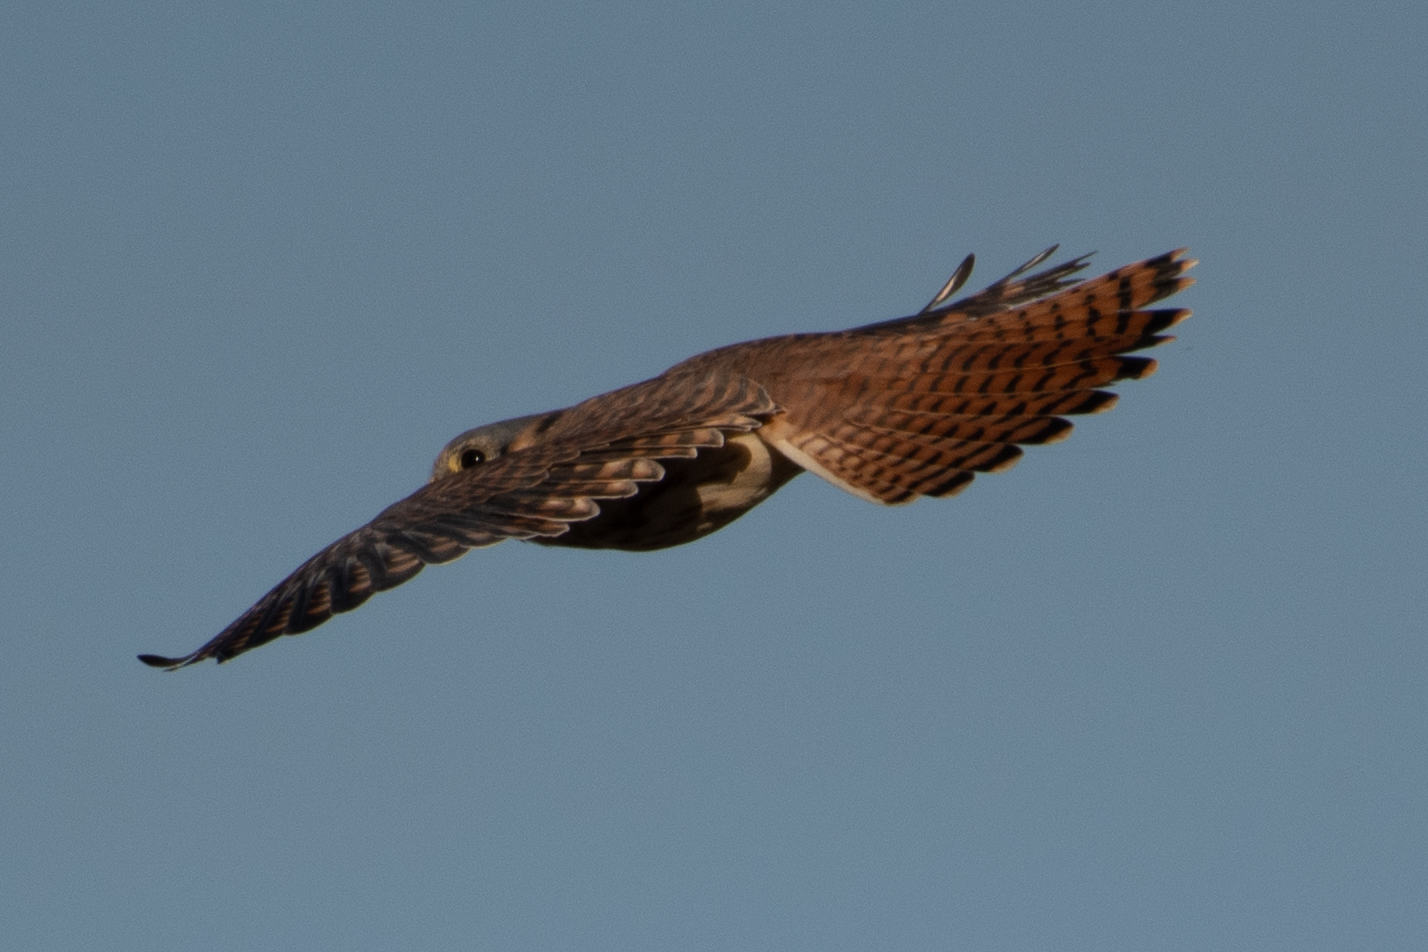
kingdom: Animalia
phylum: Chordata
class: Aves
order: Falconiformes
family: Falconidae
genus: Falco
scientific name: Falco sparverius
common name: American kestrel
